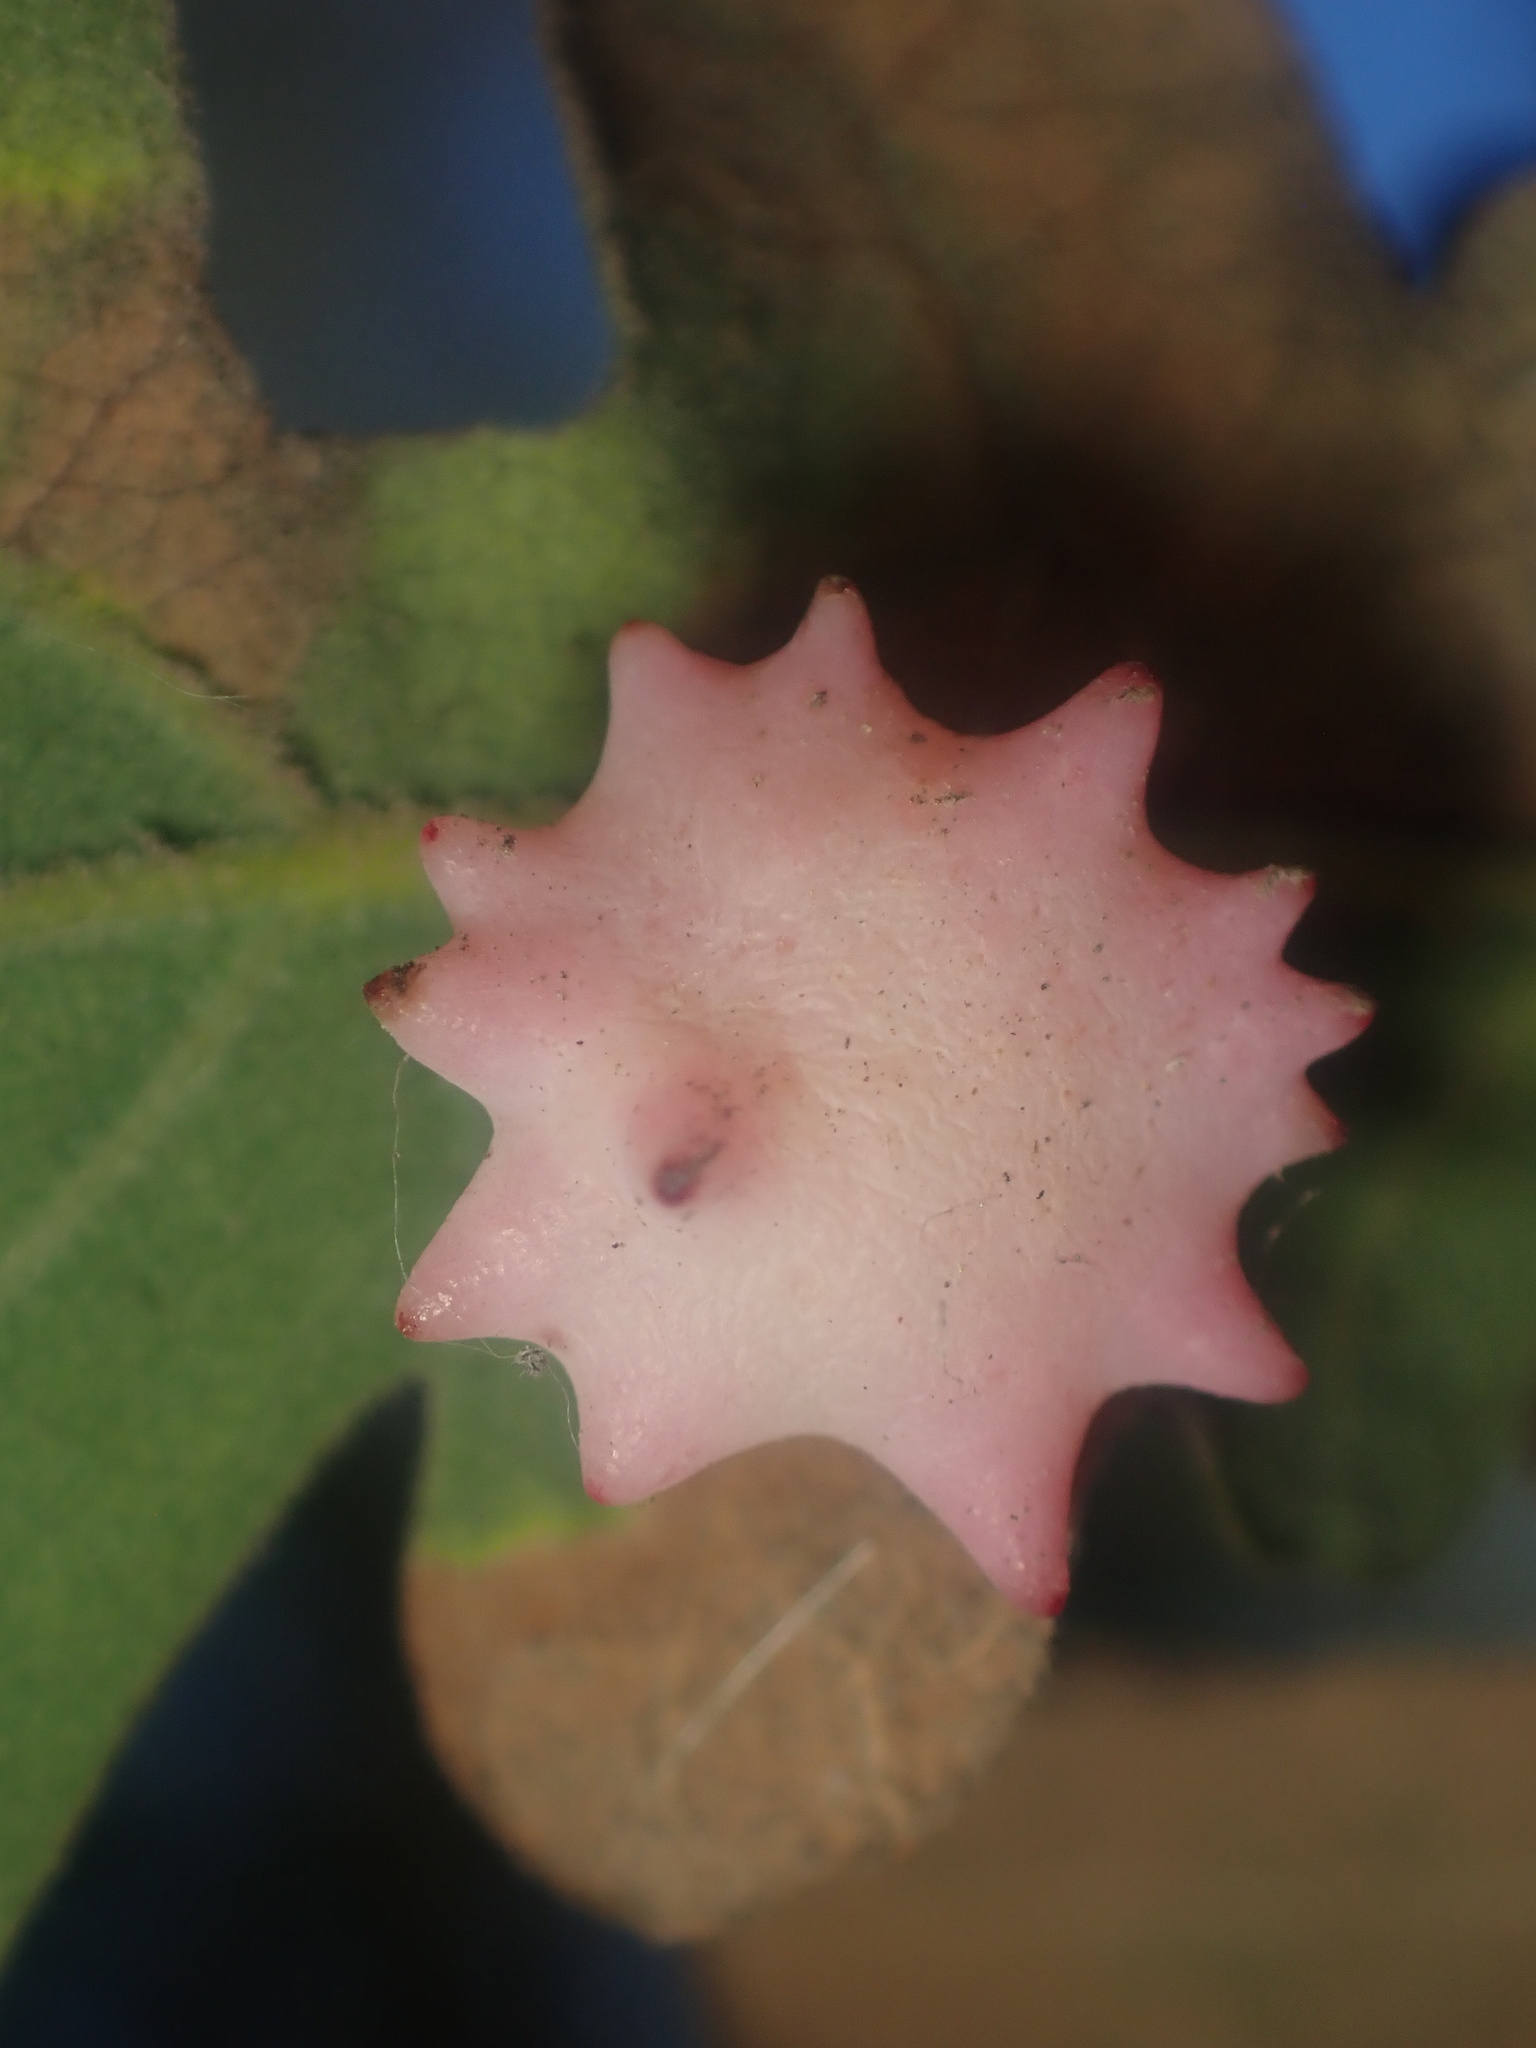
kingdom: Animalia
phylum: Arthropoda
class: Insecta
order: Hymenoptera
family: Cynipidae
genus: Cynips
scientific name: Cynips douglasi
